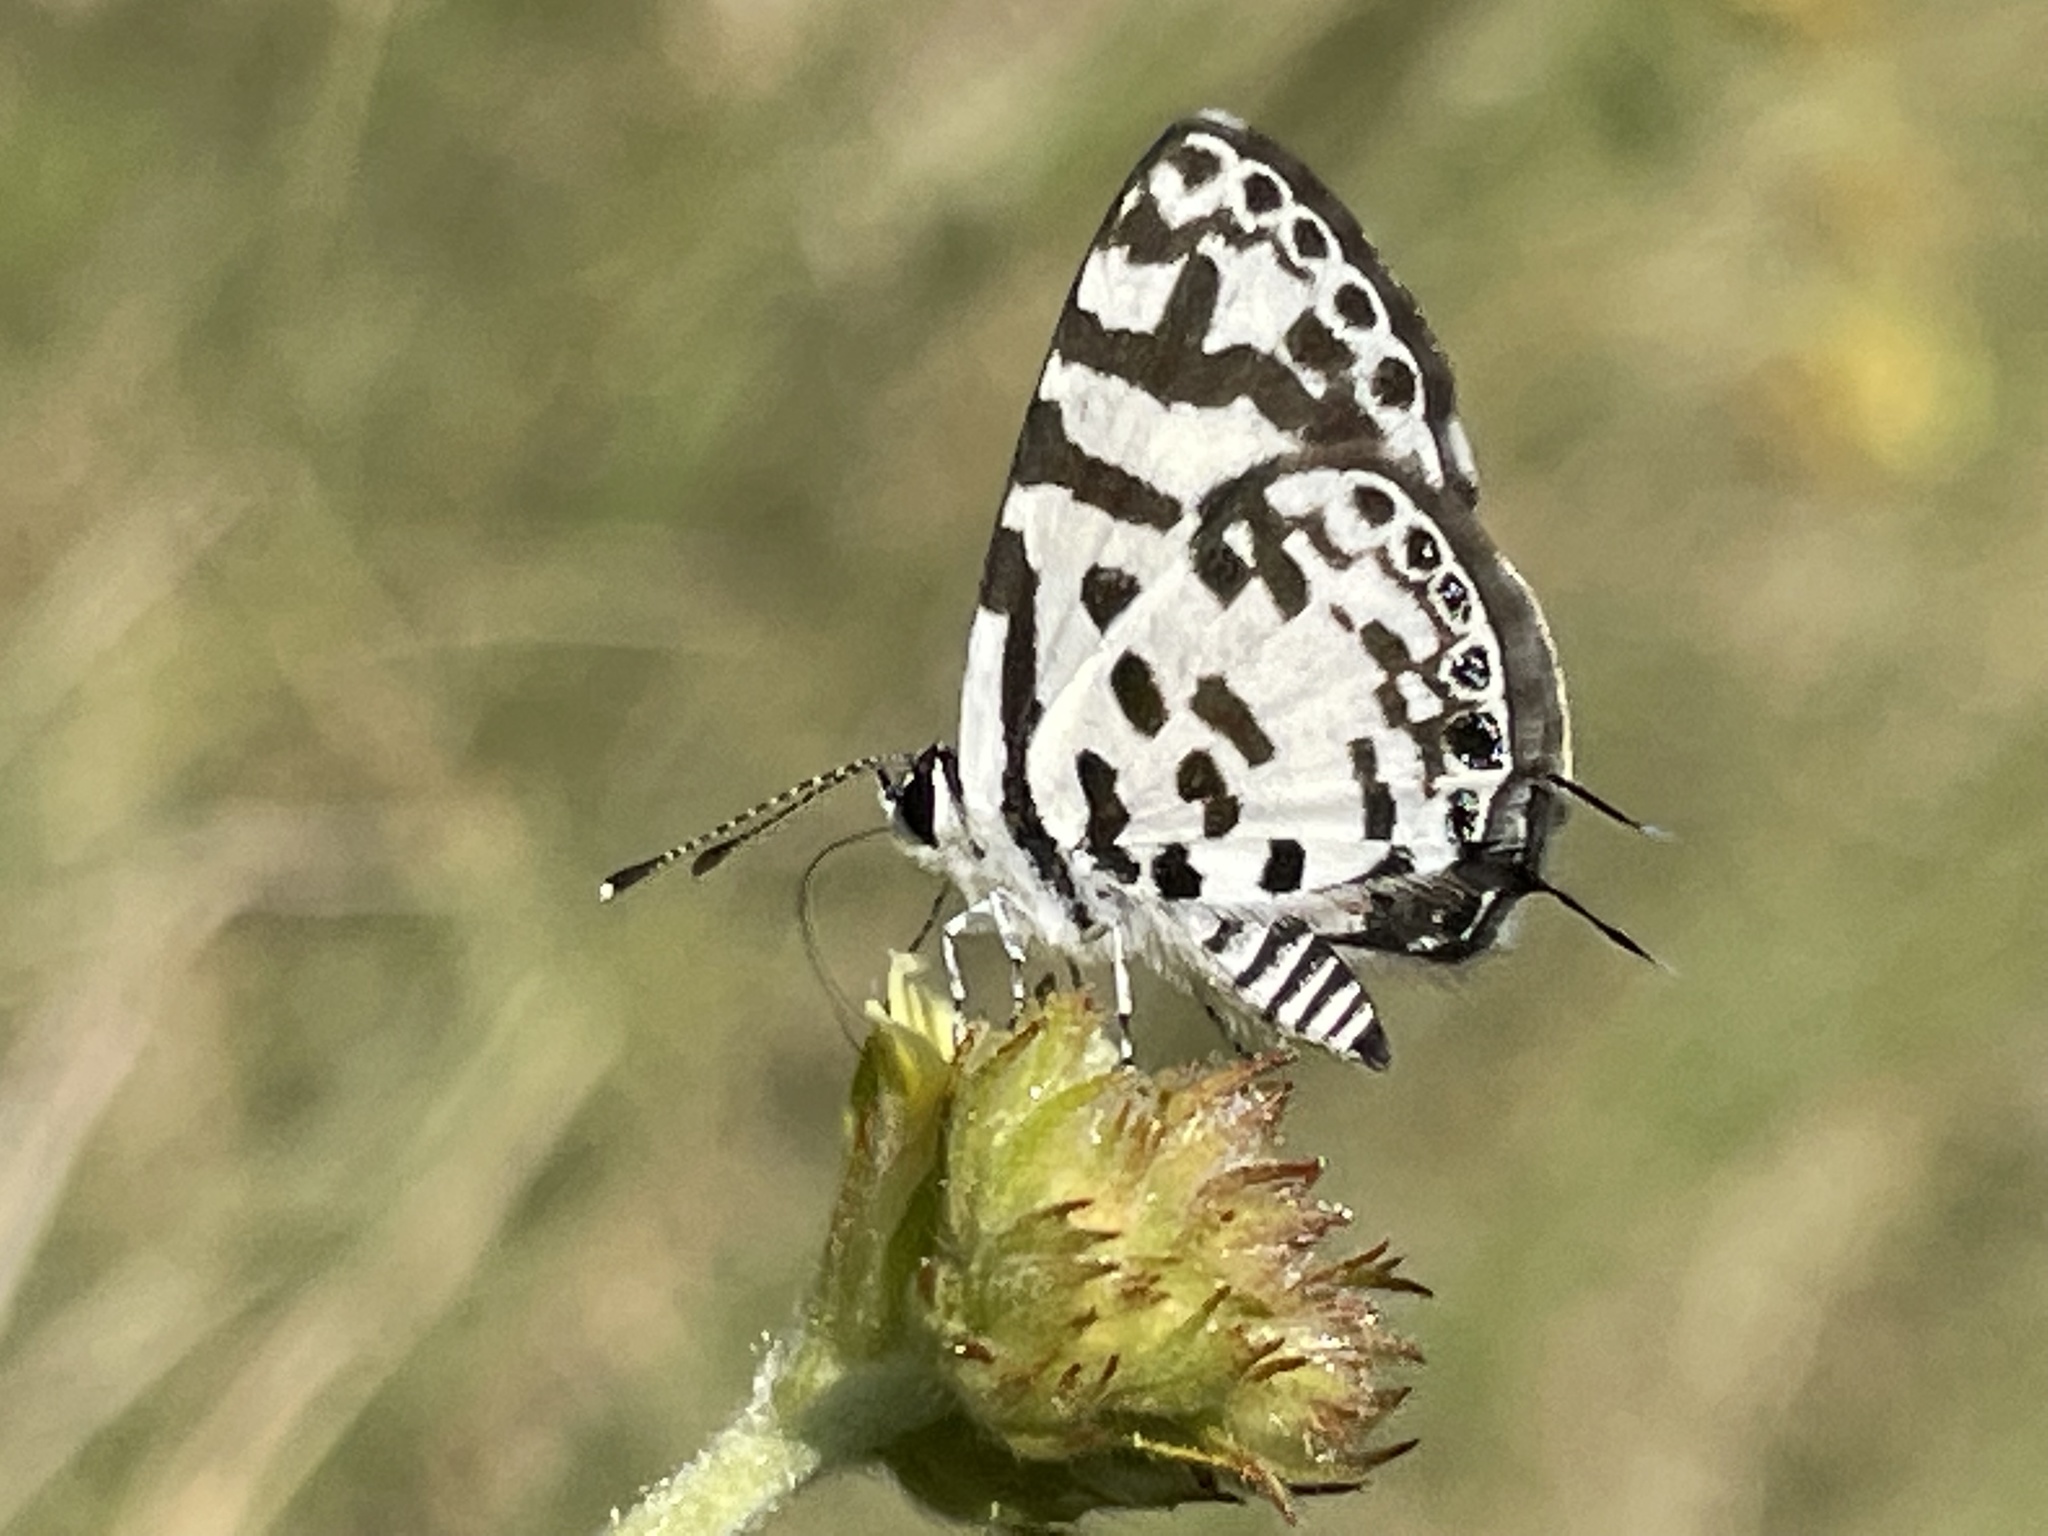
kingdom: Animalia
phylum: Arthropoda
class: Insecta
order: Lepidoptera
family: Lycaenidae
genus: Castalius
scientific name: Castalius melaena
